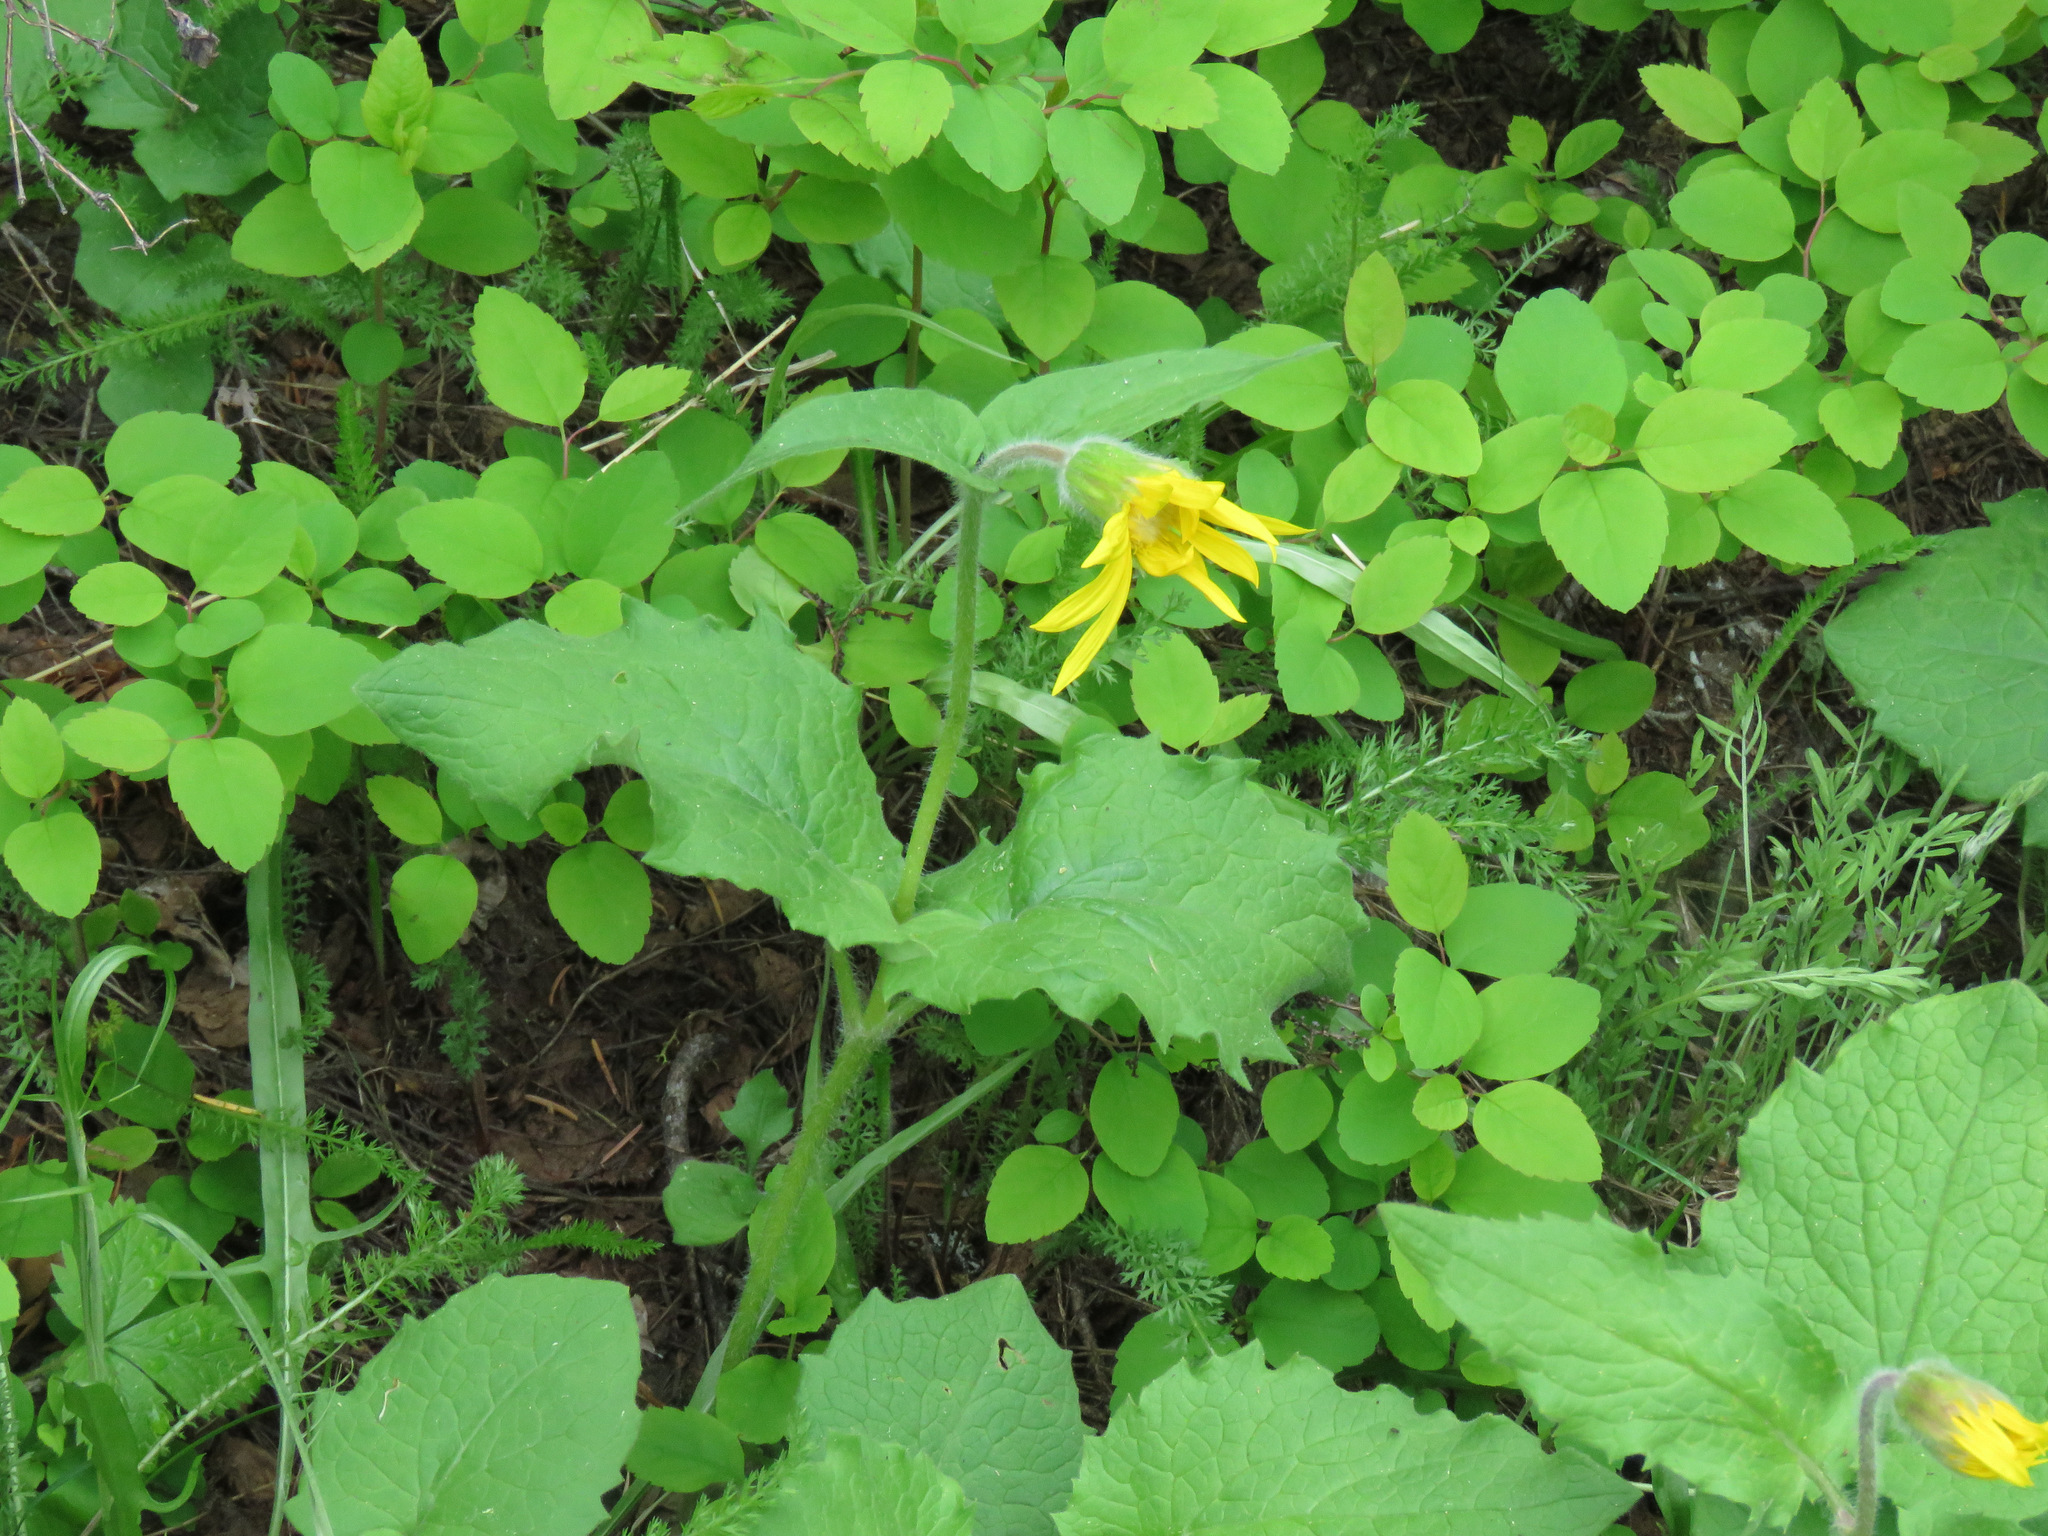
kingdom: Plantae
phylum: Tracheophyta
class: Magnoliopsida
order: Asterales
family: Asteraceae
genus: Arnica
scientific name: Arnica cordifolia
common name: Heart-leaf arnica
